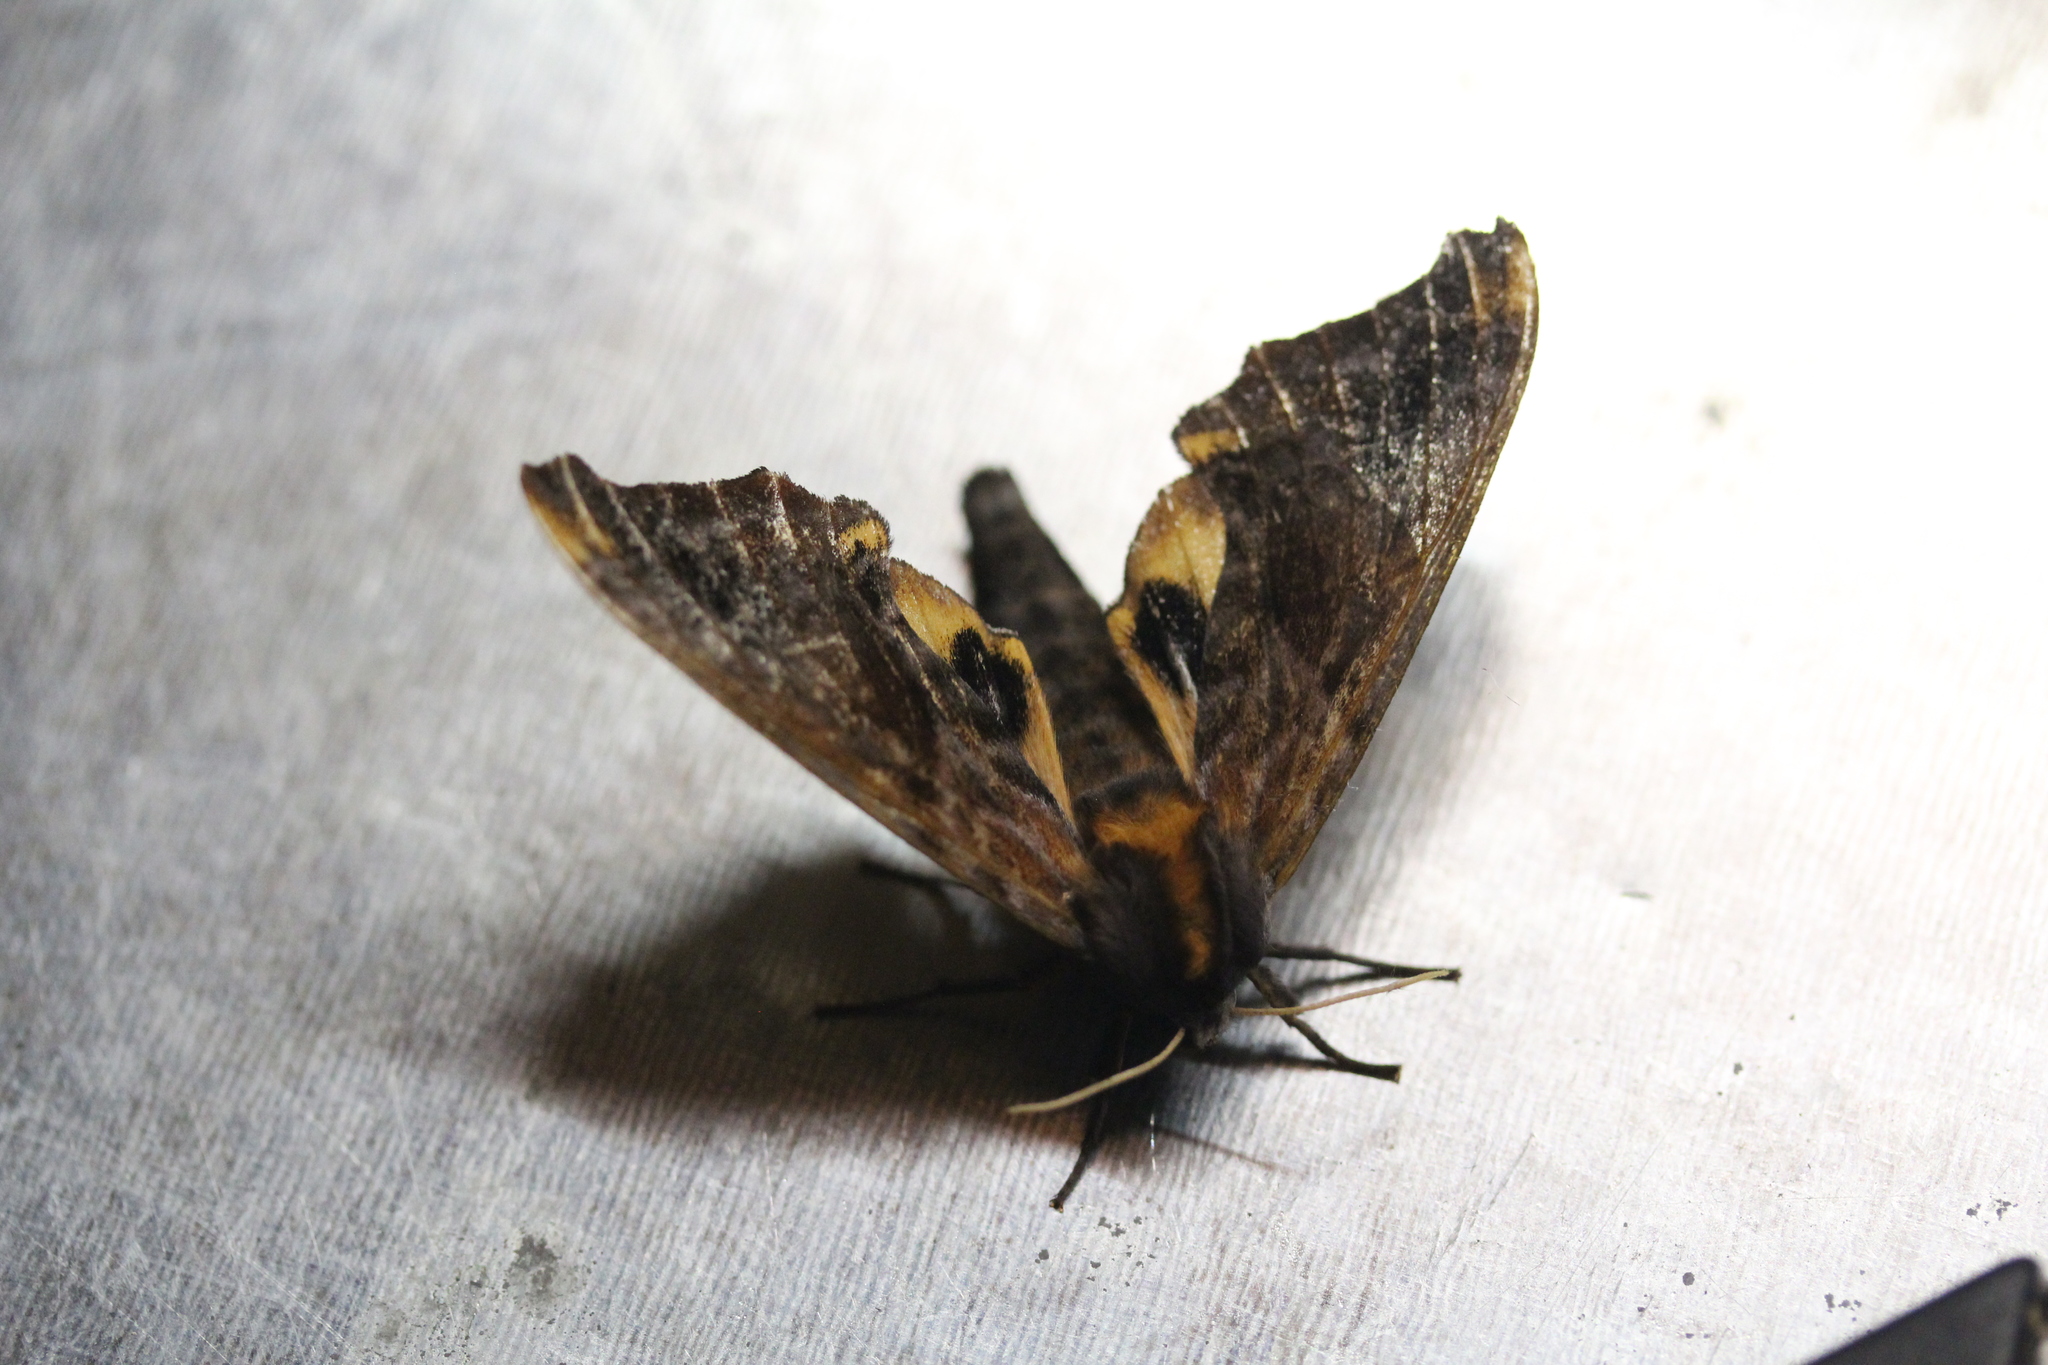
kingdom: Animalia
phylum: Arthropoda
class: Insecta
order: Lepidoptera
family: Sphingidae
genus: Paonias
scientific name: Paonias myops
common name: Small-eyed sphinx
